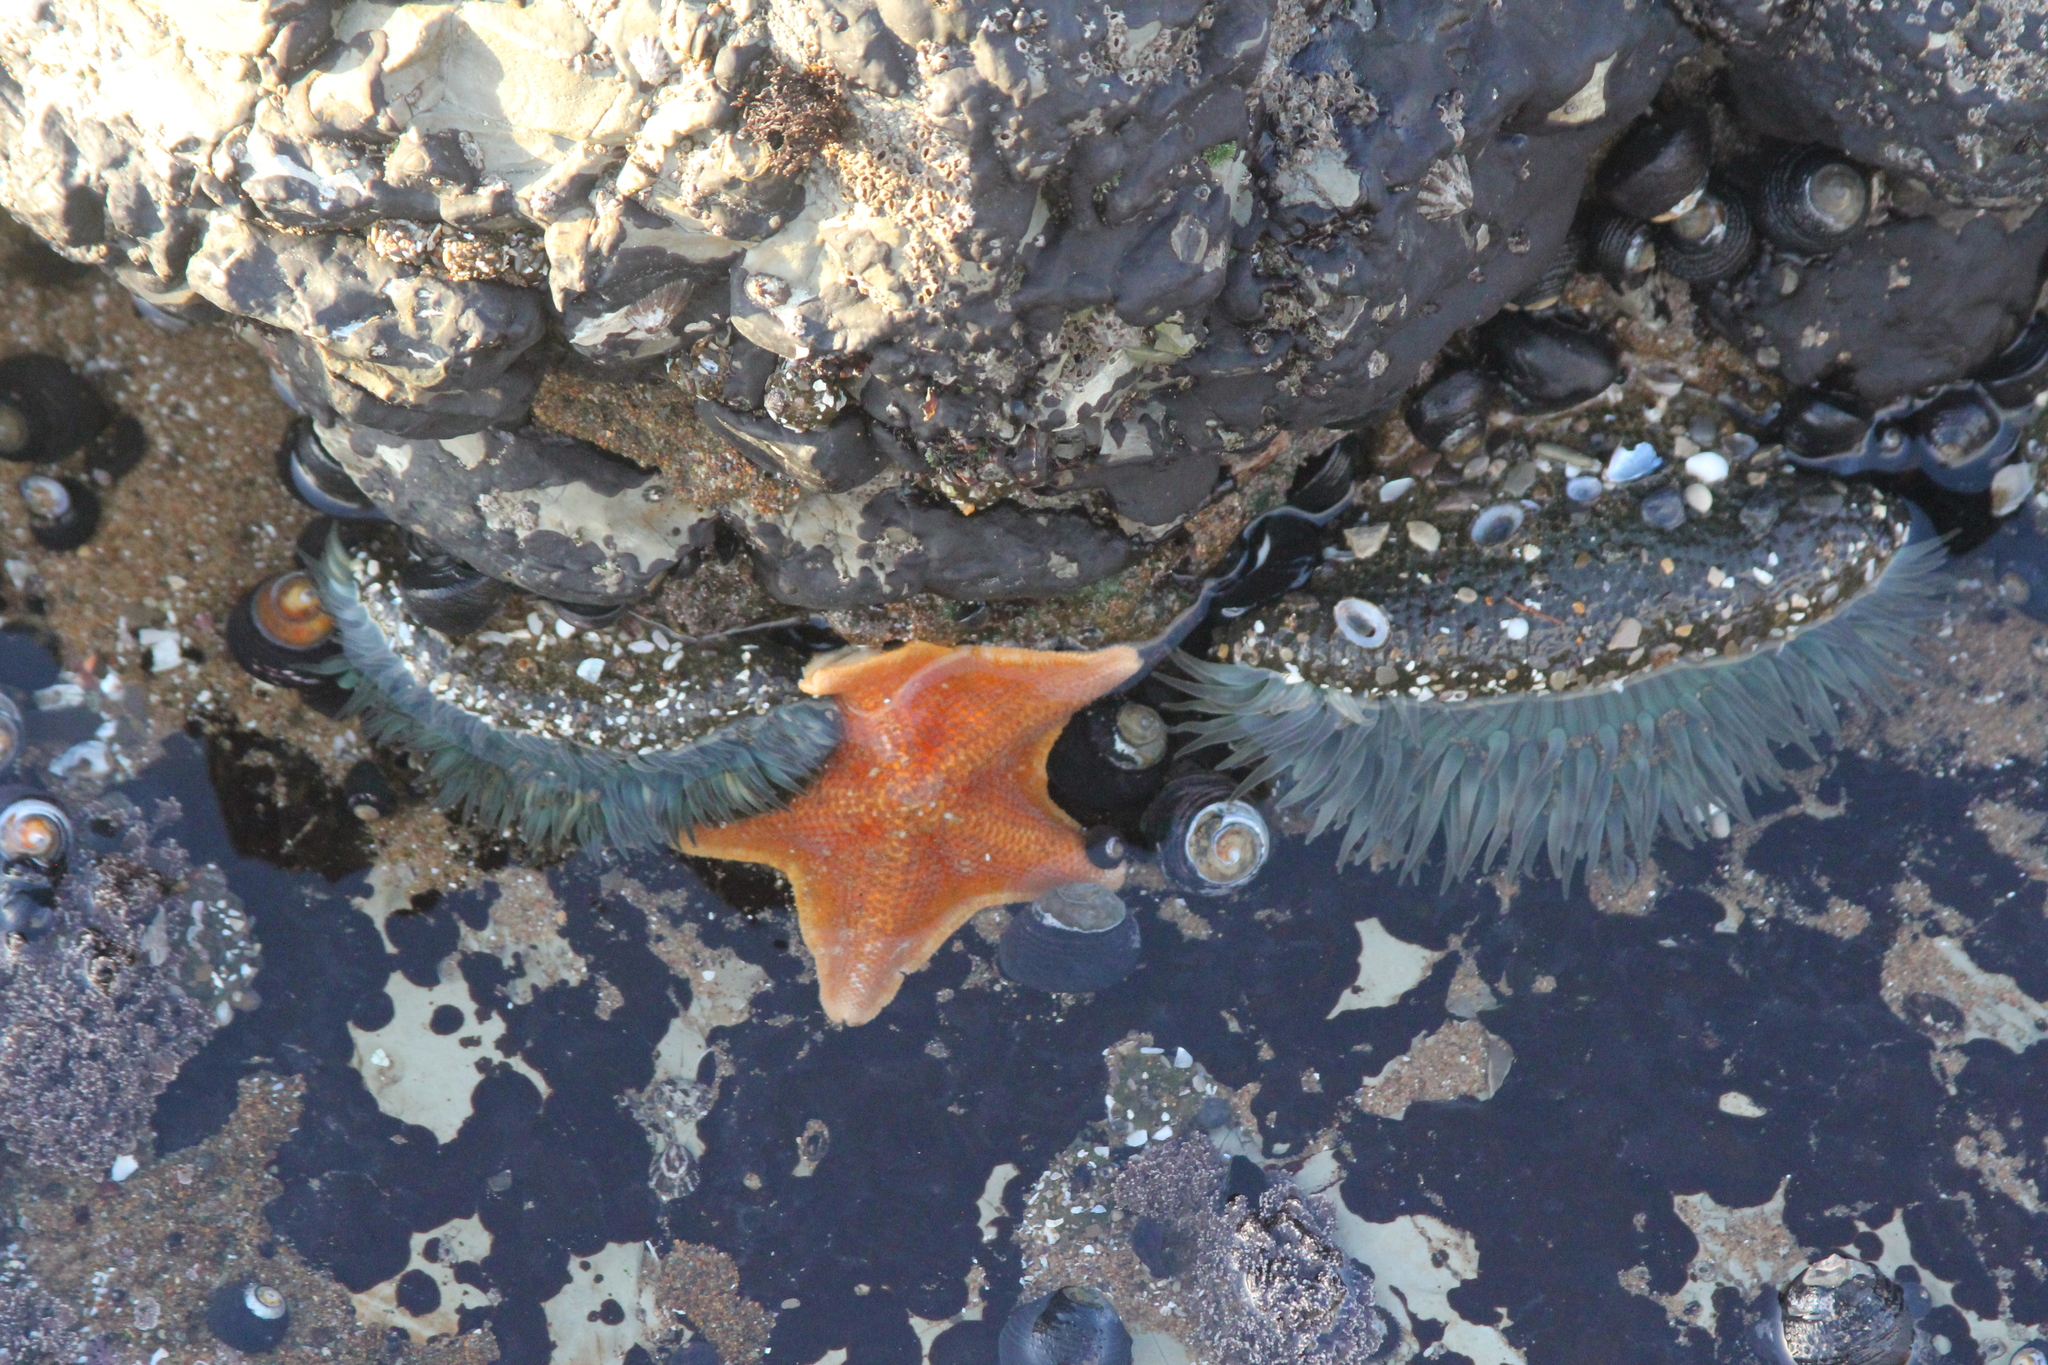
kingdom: Animalia
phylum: Echinodermata
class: Asteroidea
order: Valvatida
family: Asterinidae
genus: Patiria
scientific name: Patiria miniata
